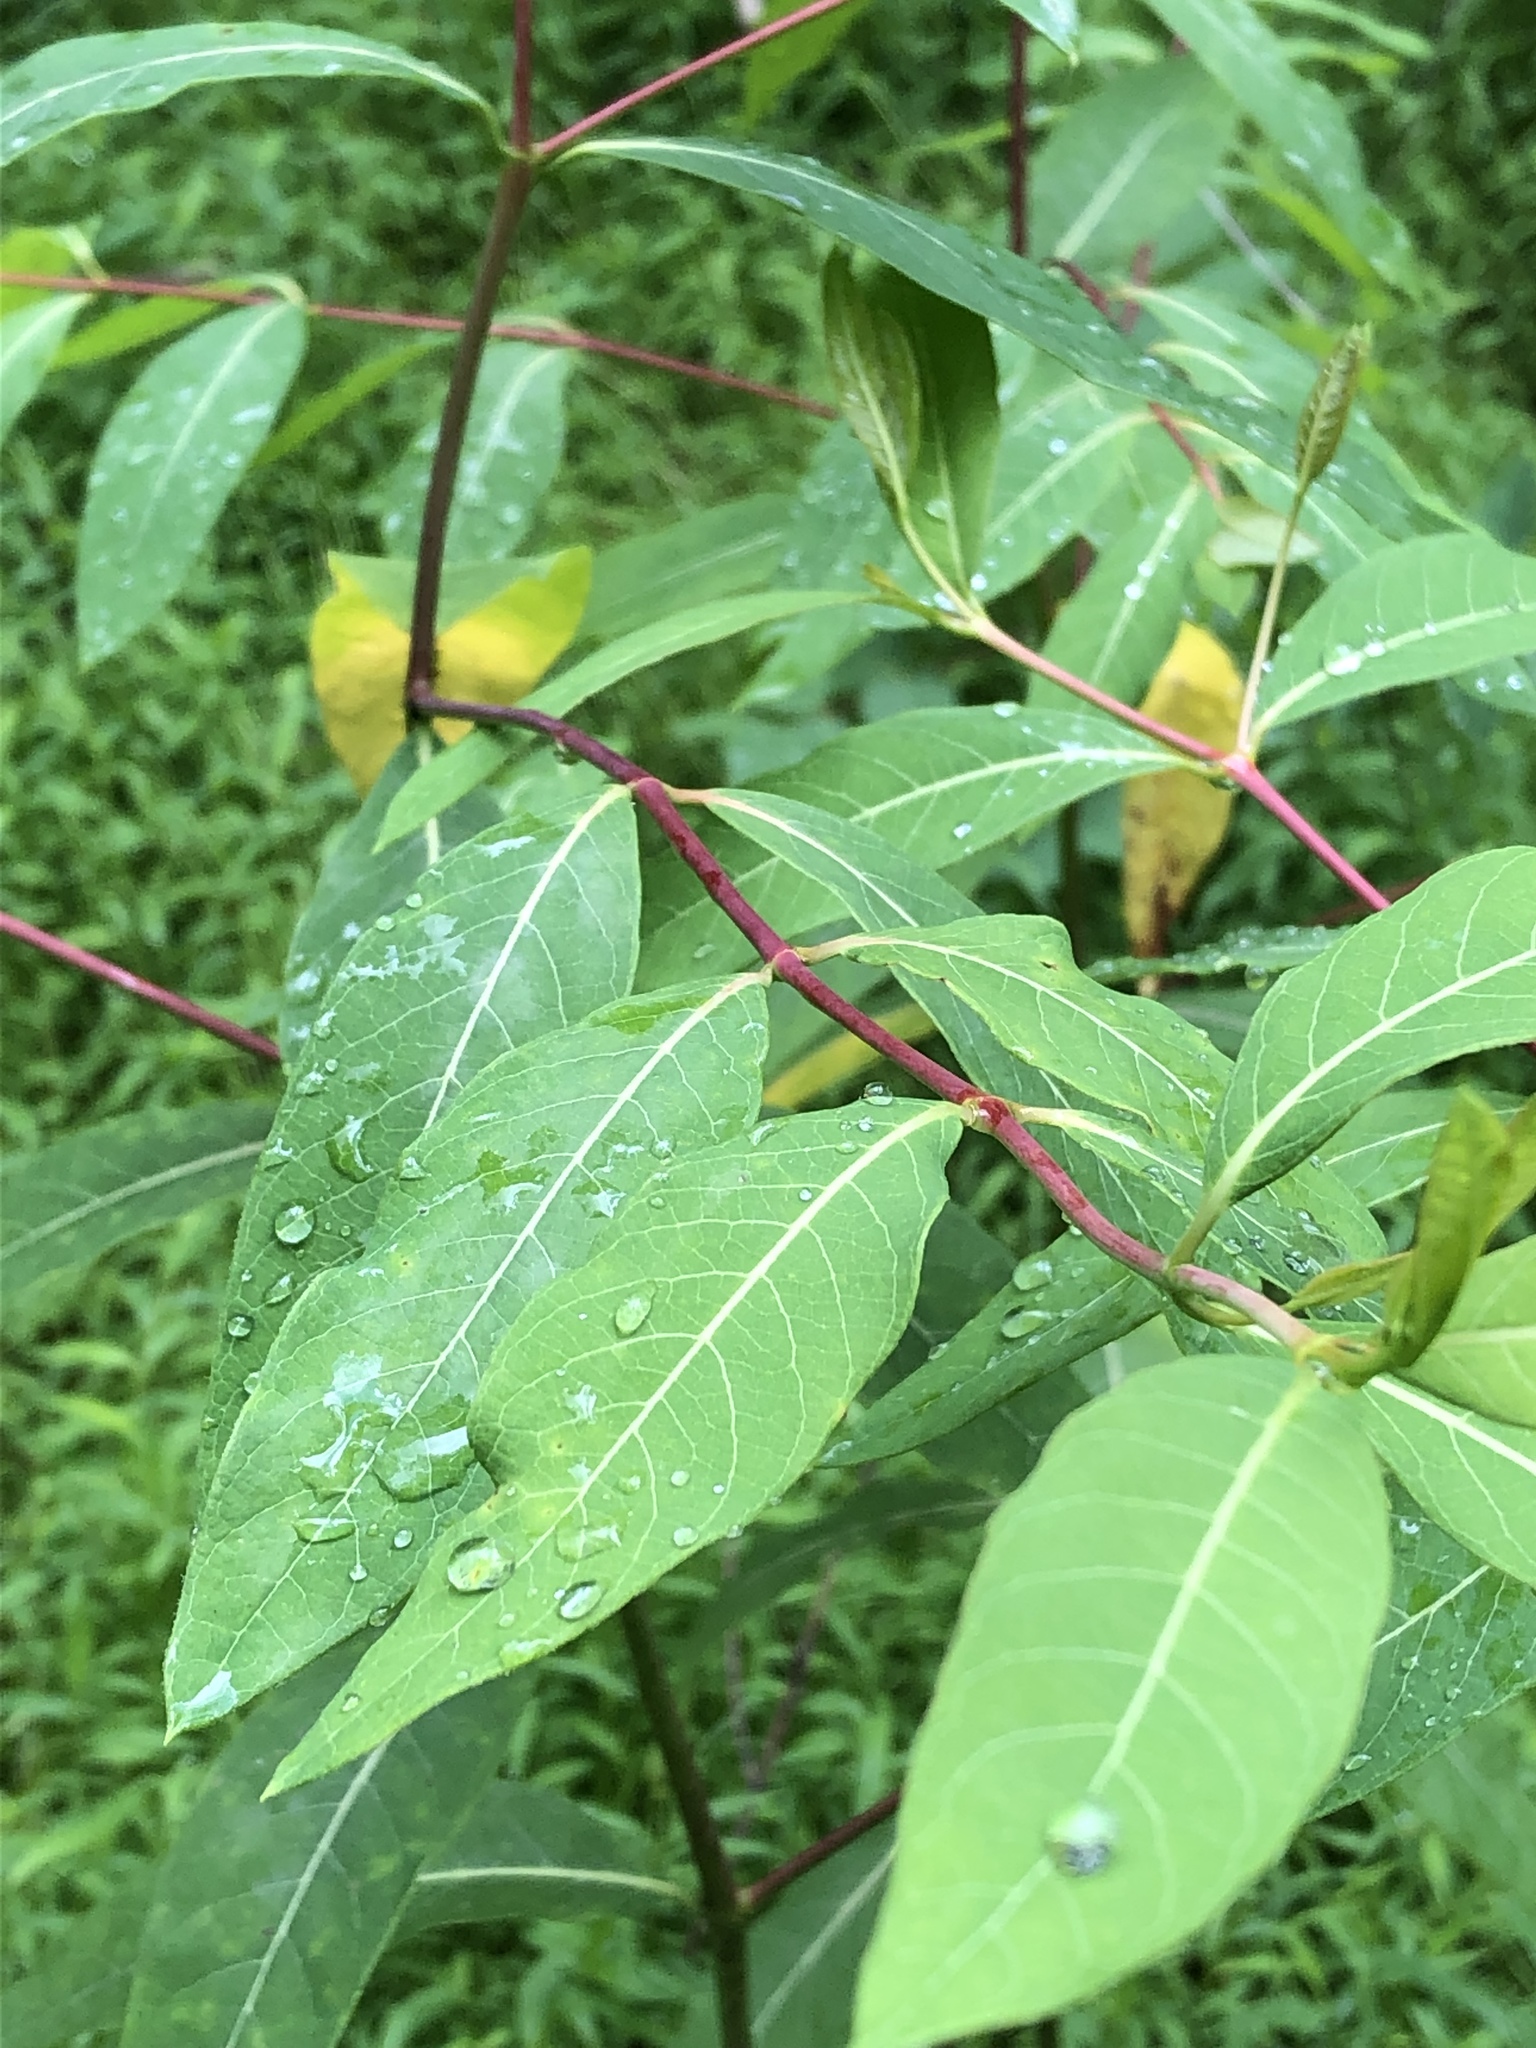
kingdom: Plantae
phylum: Tracheophyta
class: Magnoliopsida
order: Gentianales
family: Apocynaceae
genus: Apocynum
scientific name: Apocynum cannabinum
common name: Hemp dogbane
